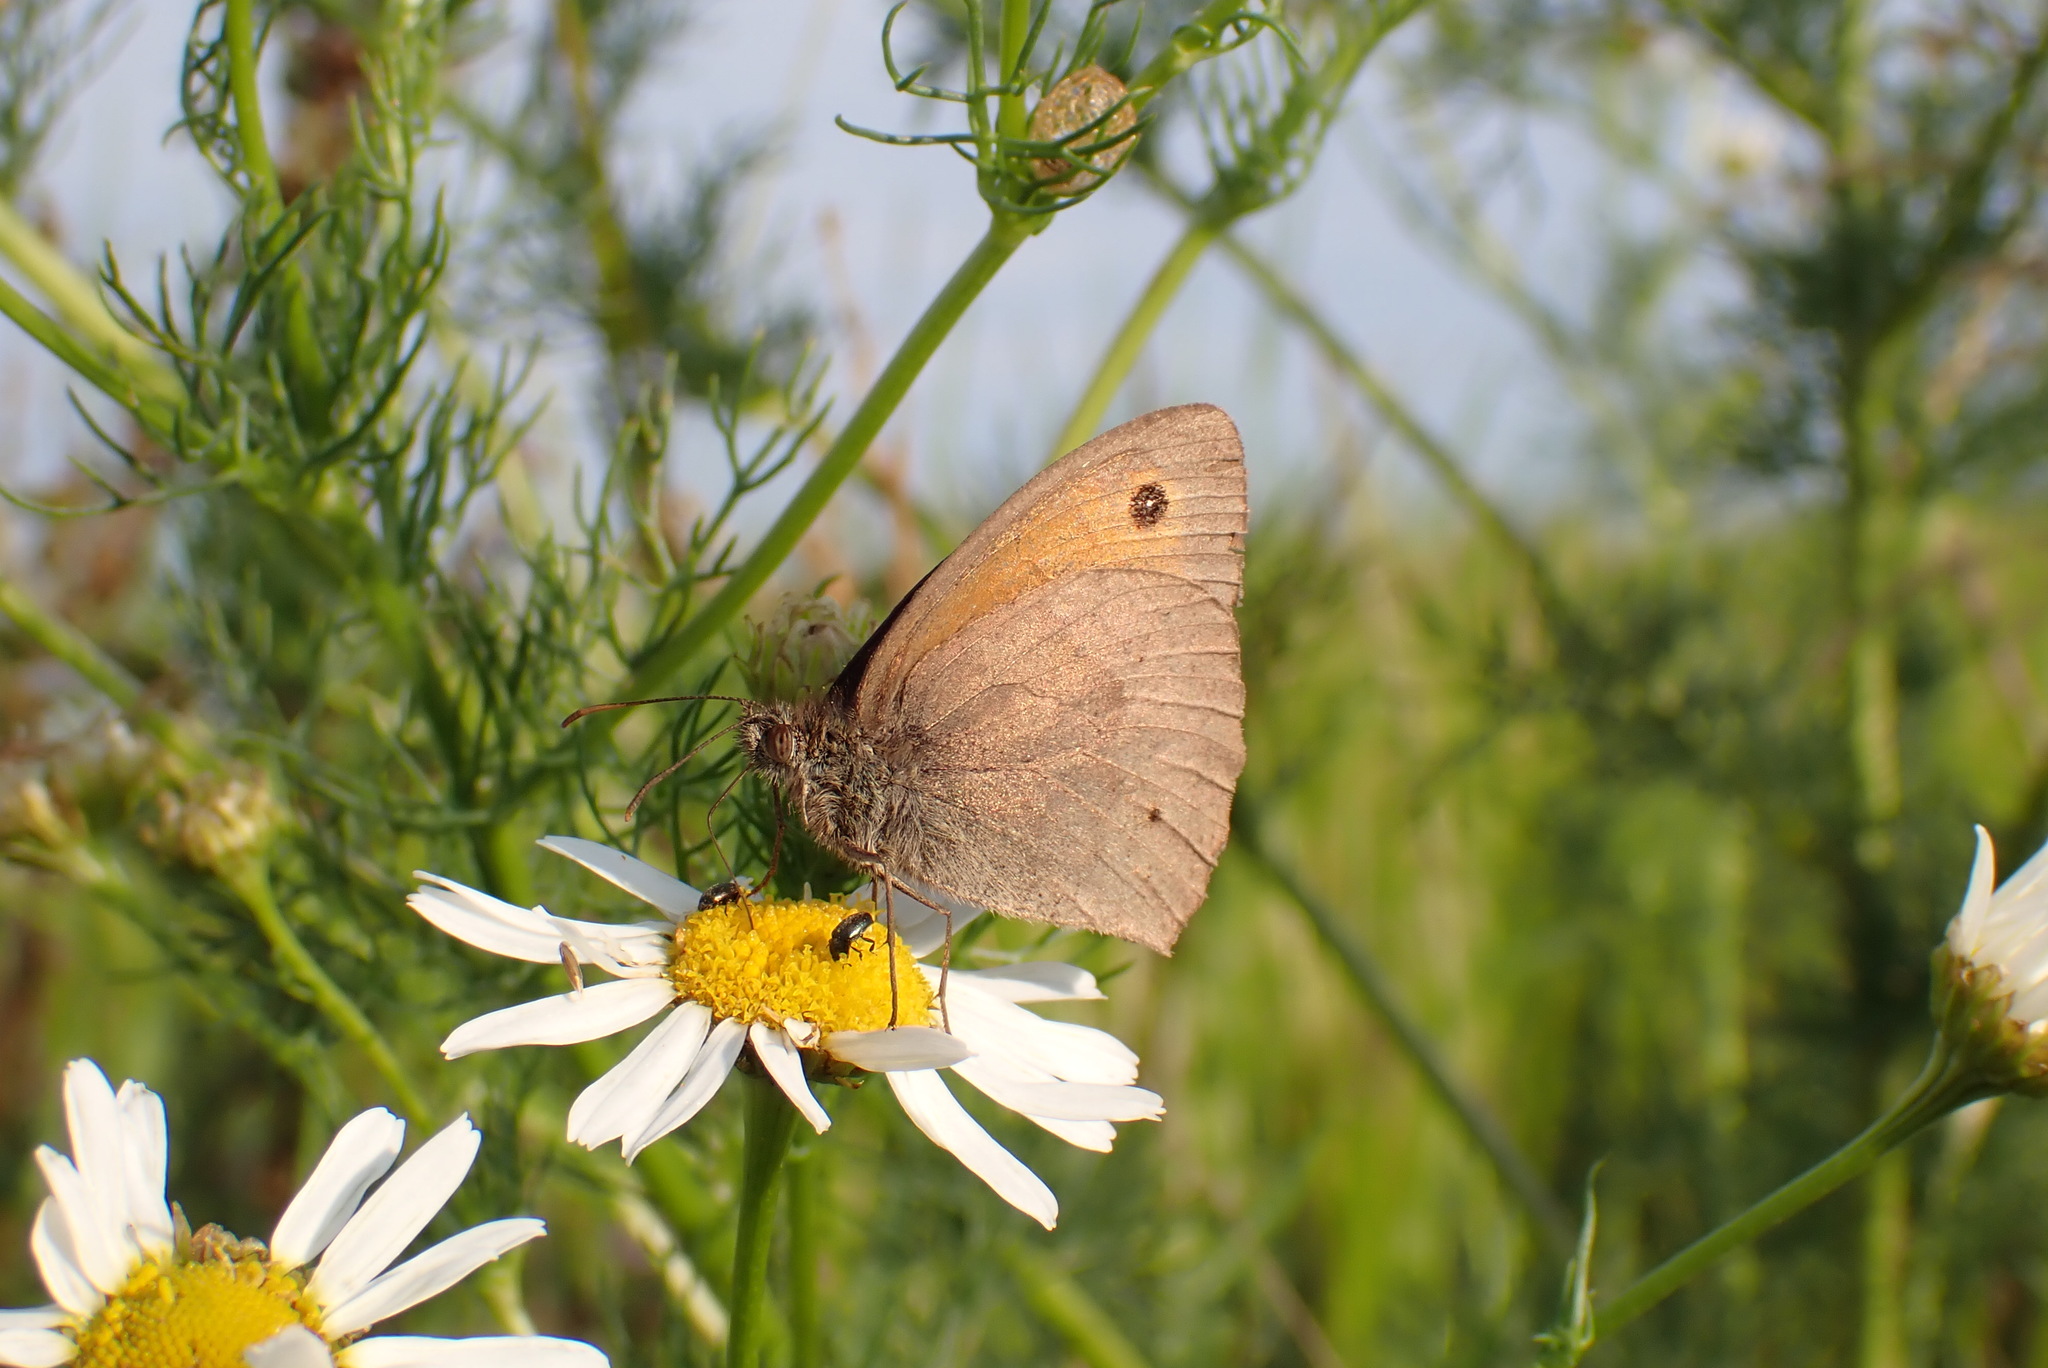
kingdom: Animalia
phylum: Arthropoda
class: Insecta
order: Lepidoptera
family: Nymphalidae
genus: Maniola
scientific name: Maniola jurtina
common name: Meadow brown
